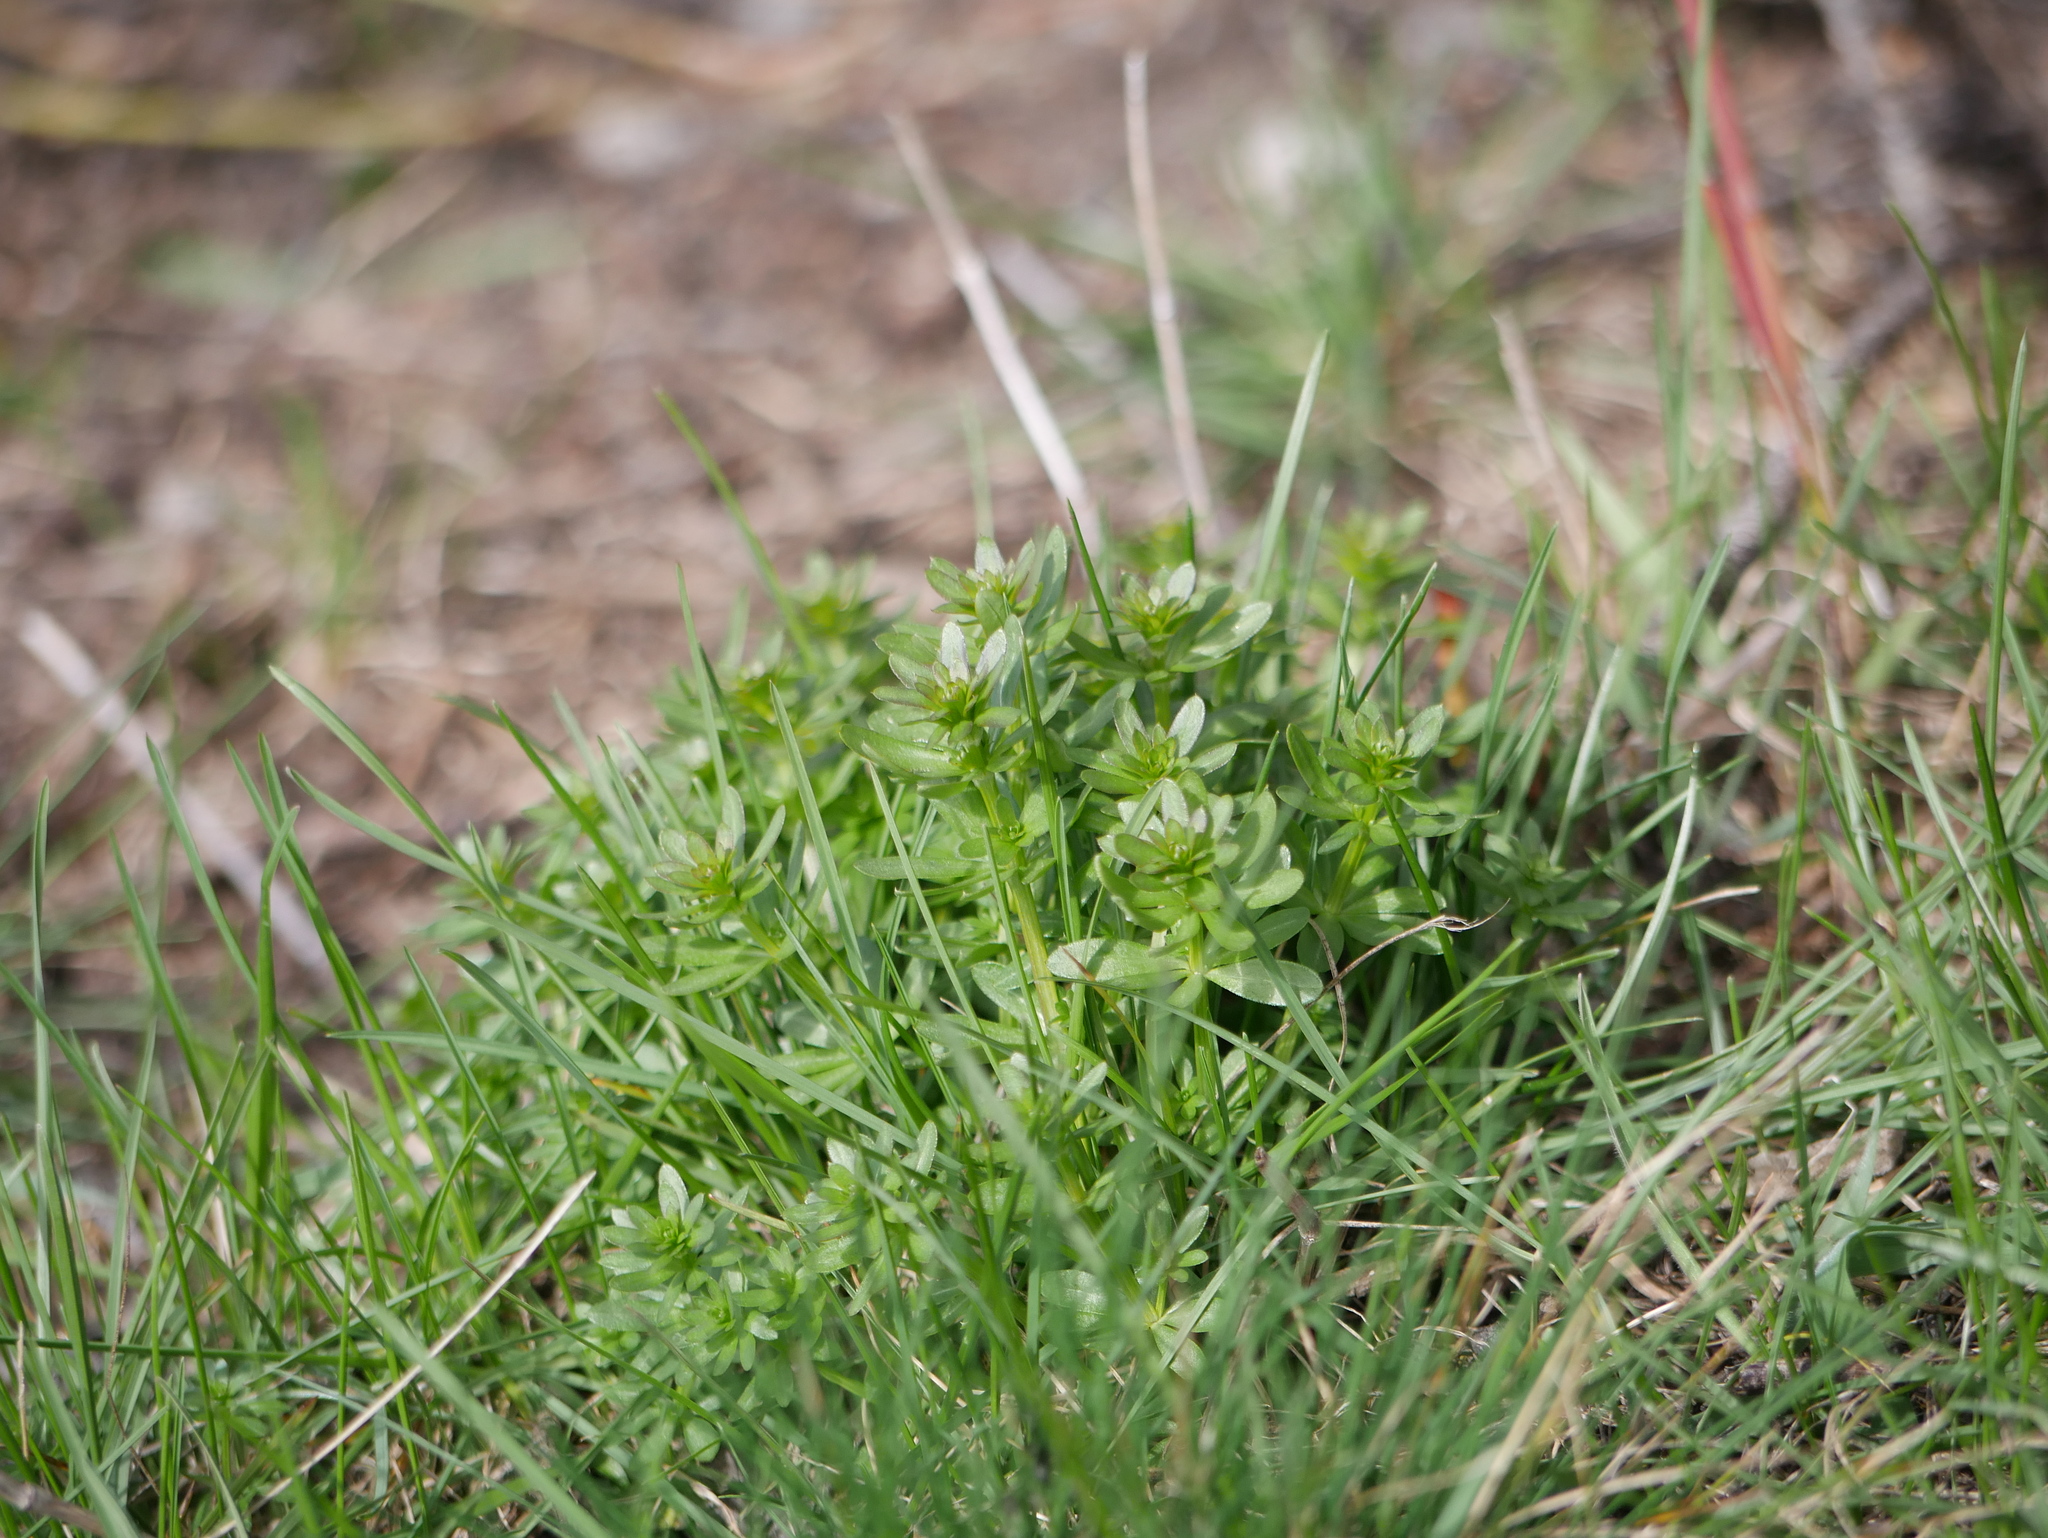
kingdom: Plantae
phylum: Tracheophyta
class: Magnoliopsida
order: Gentianales
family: Rubiaceae
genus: Galium
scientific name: Galium album
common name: White bedstraw
